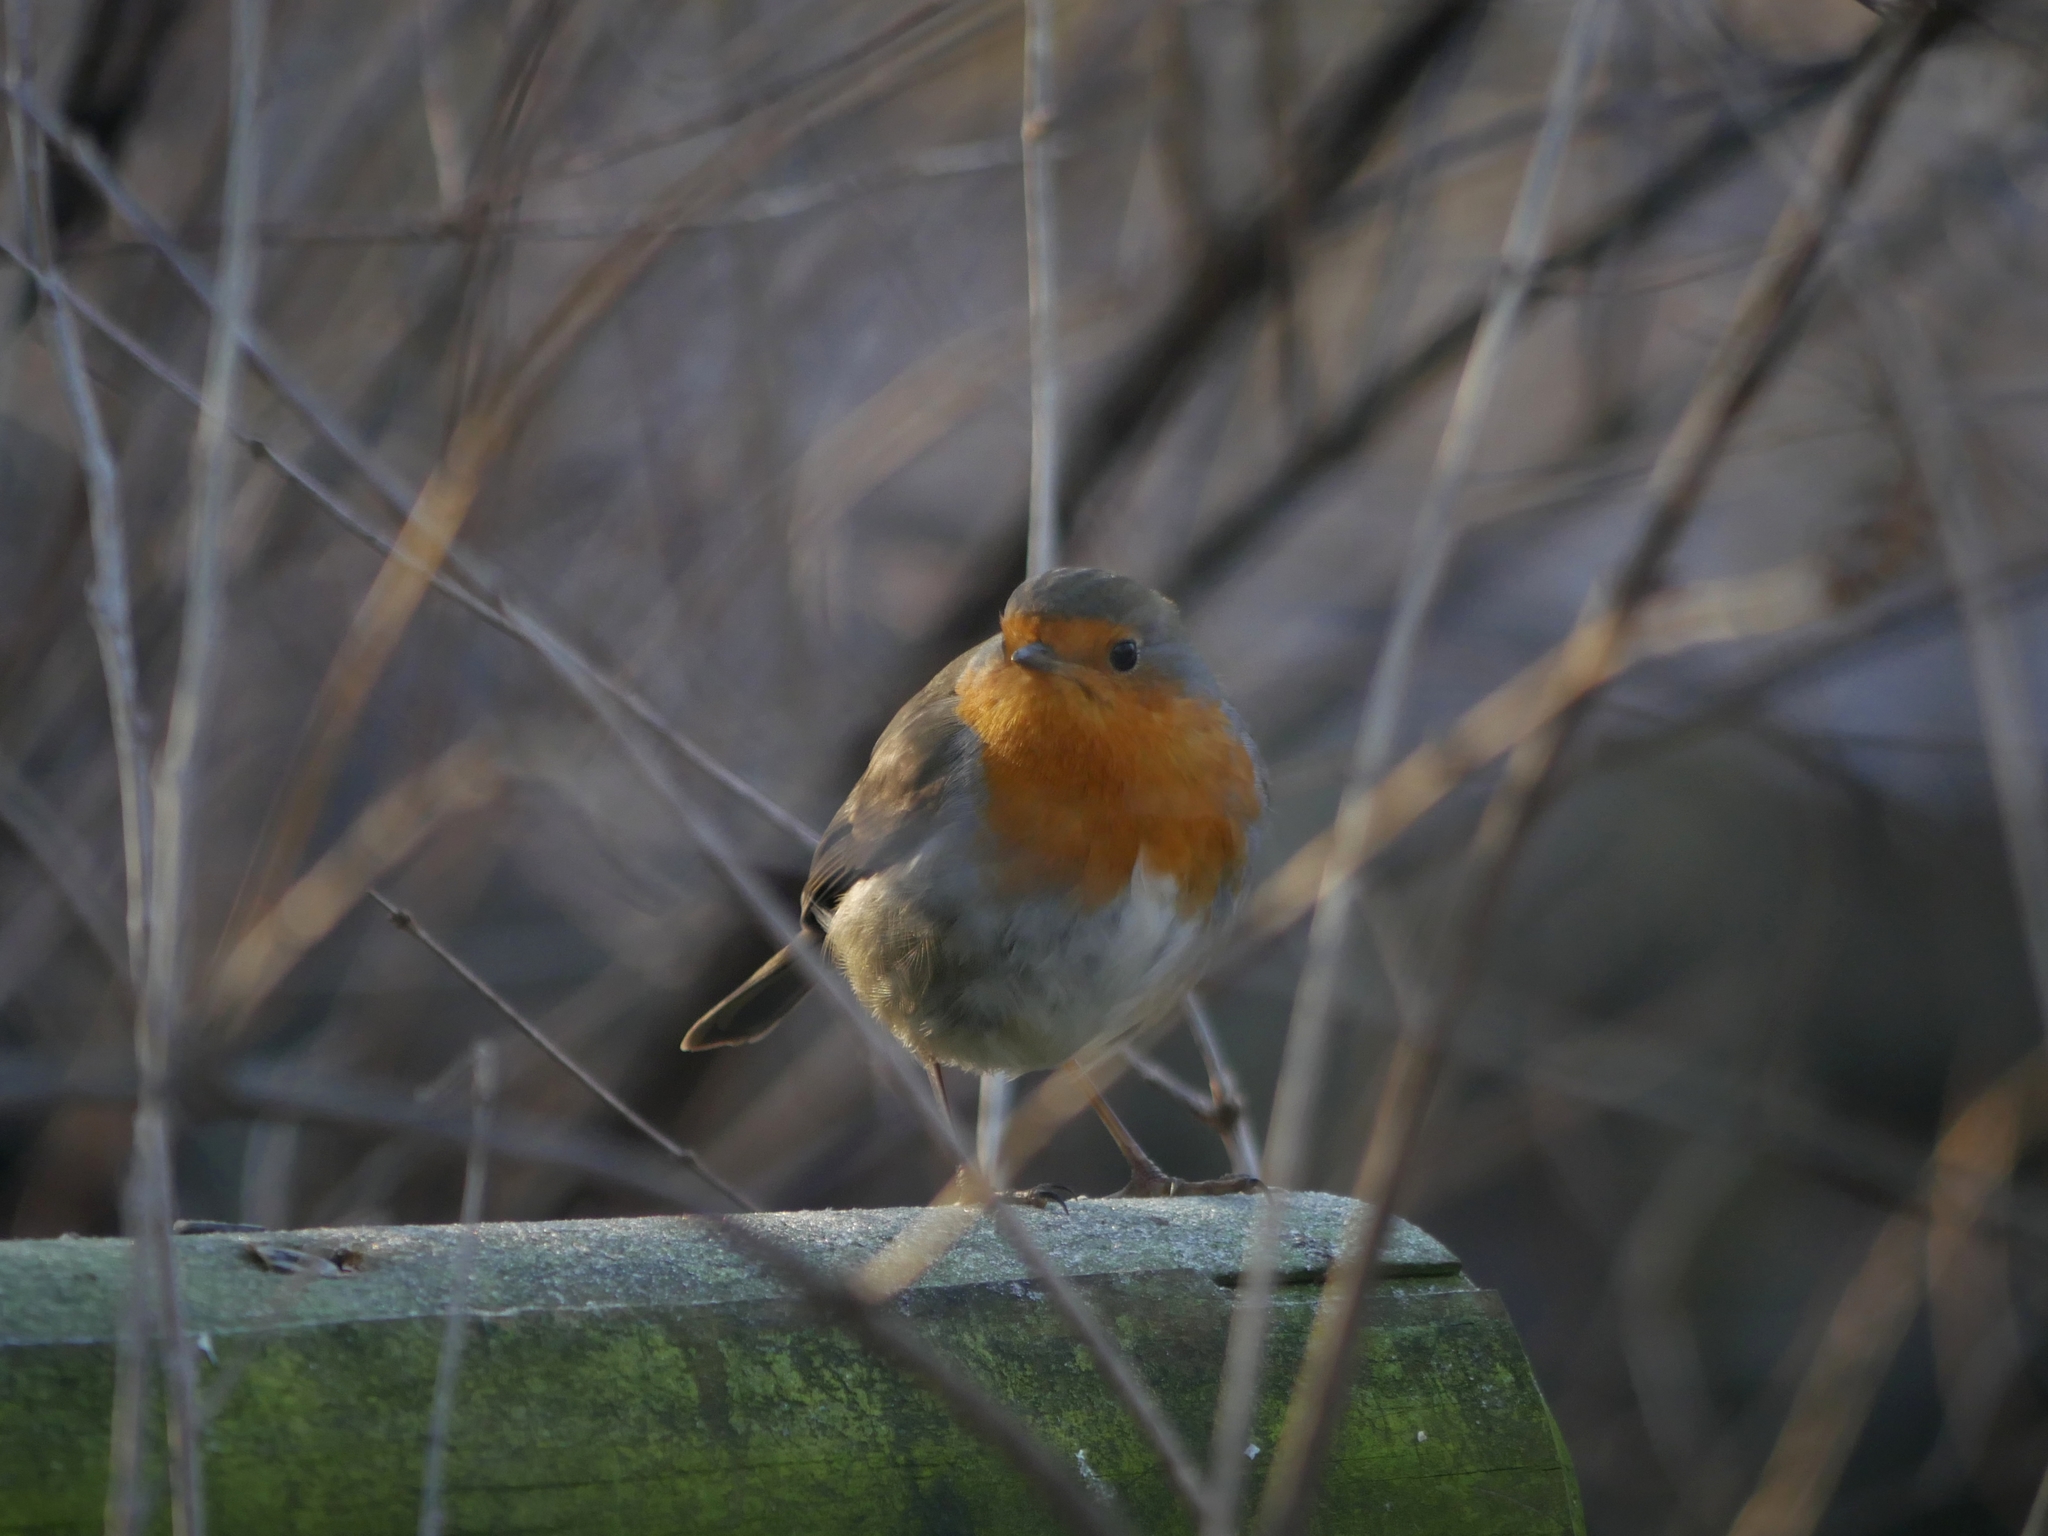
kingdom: Animalia
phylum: Chordata
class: Aves
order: Passeriformes
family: Muscicapidae
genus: Erithacus
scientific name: Erithacus rubecula
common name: European robin
